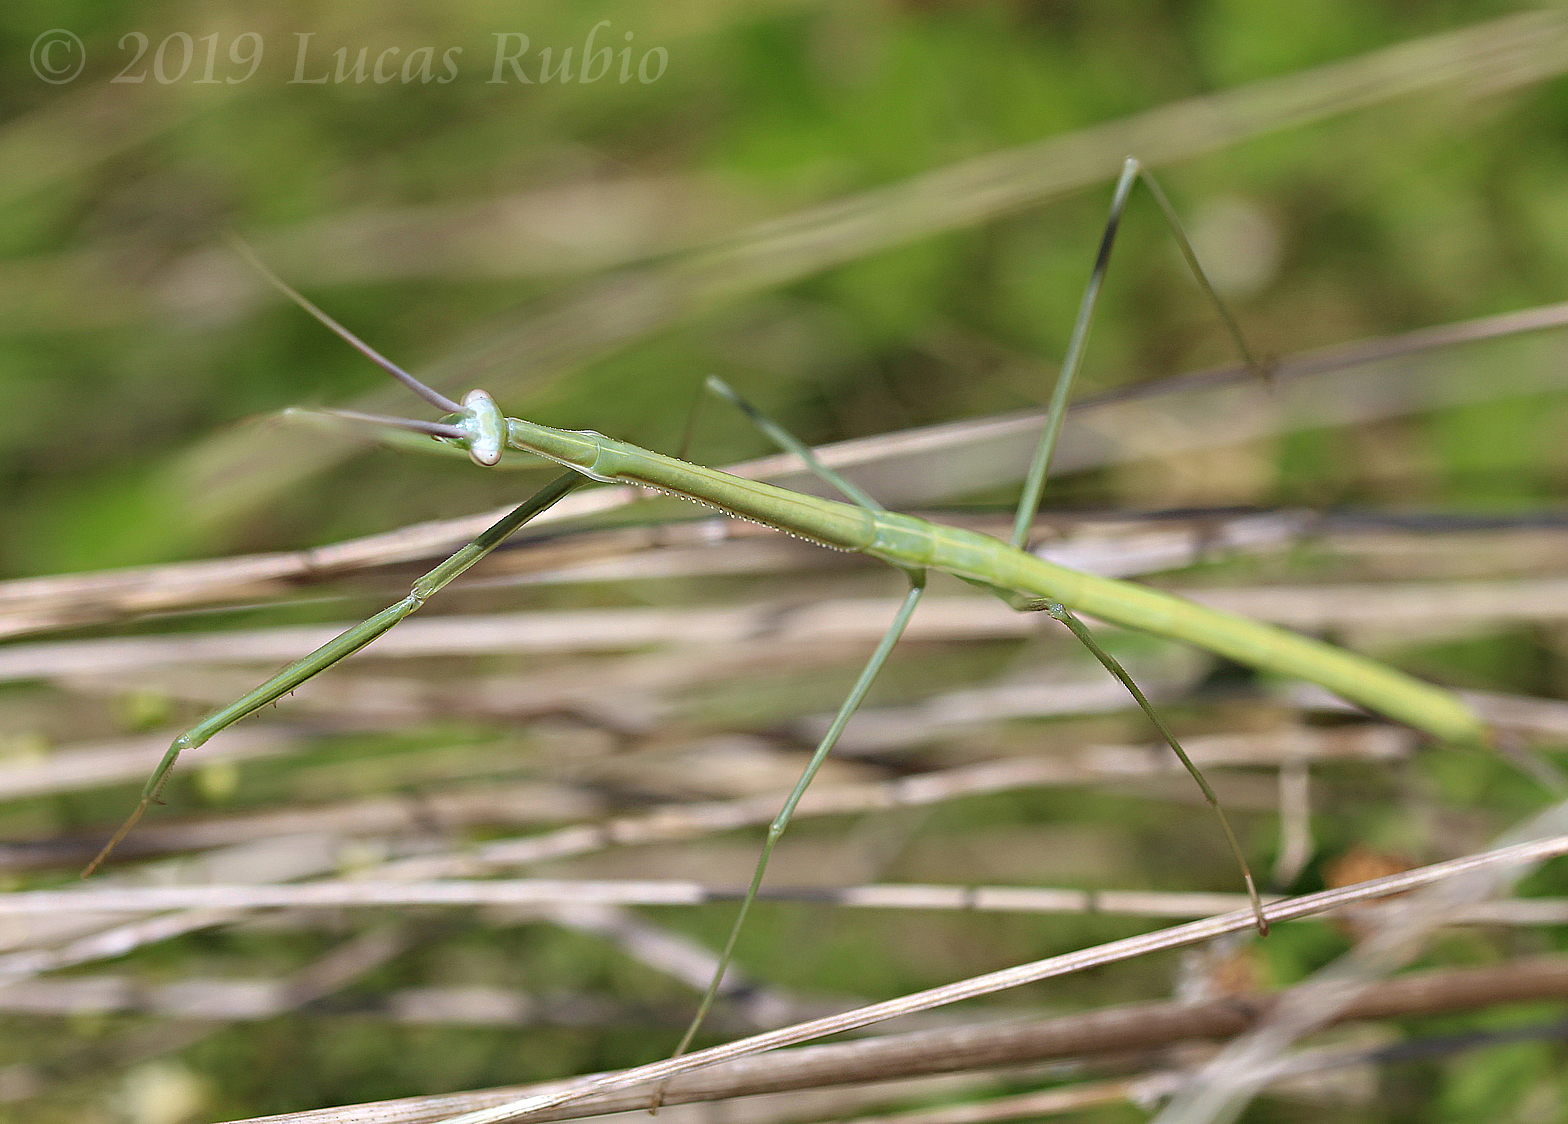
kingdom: Animalia
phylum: Arthropoda
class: Insecta
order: Mantodea
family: Coptopterygidae
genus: Brunneria
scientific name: Brunneria subaptera
